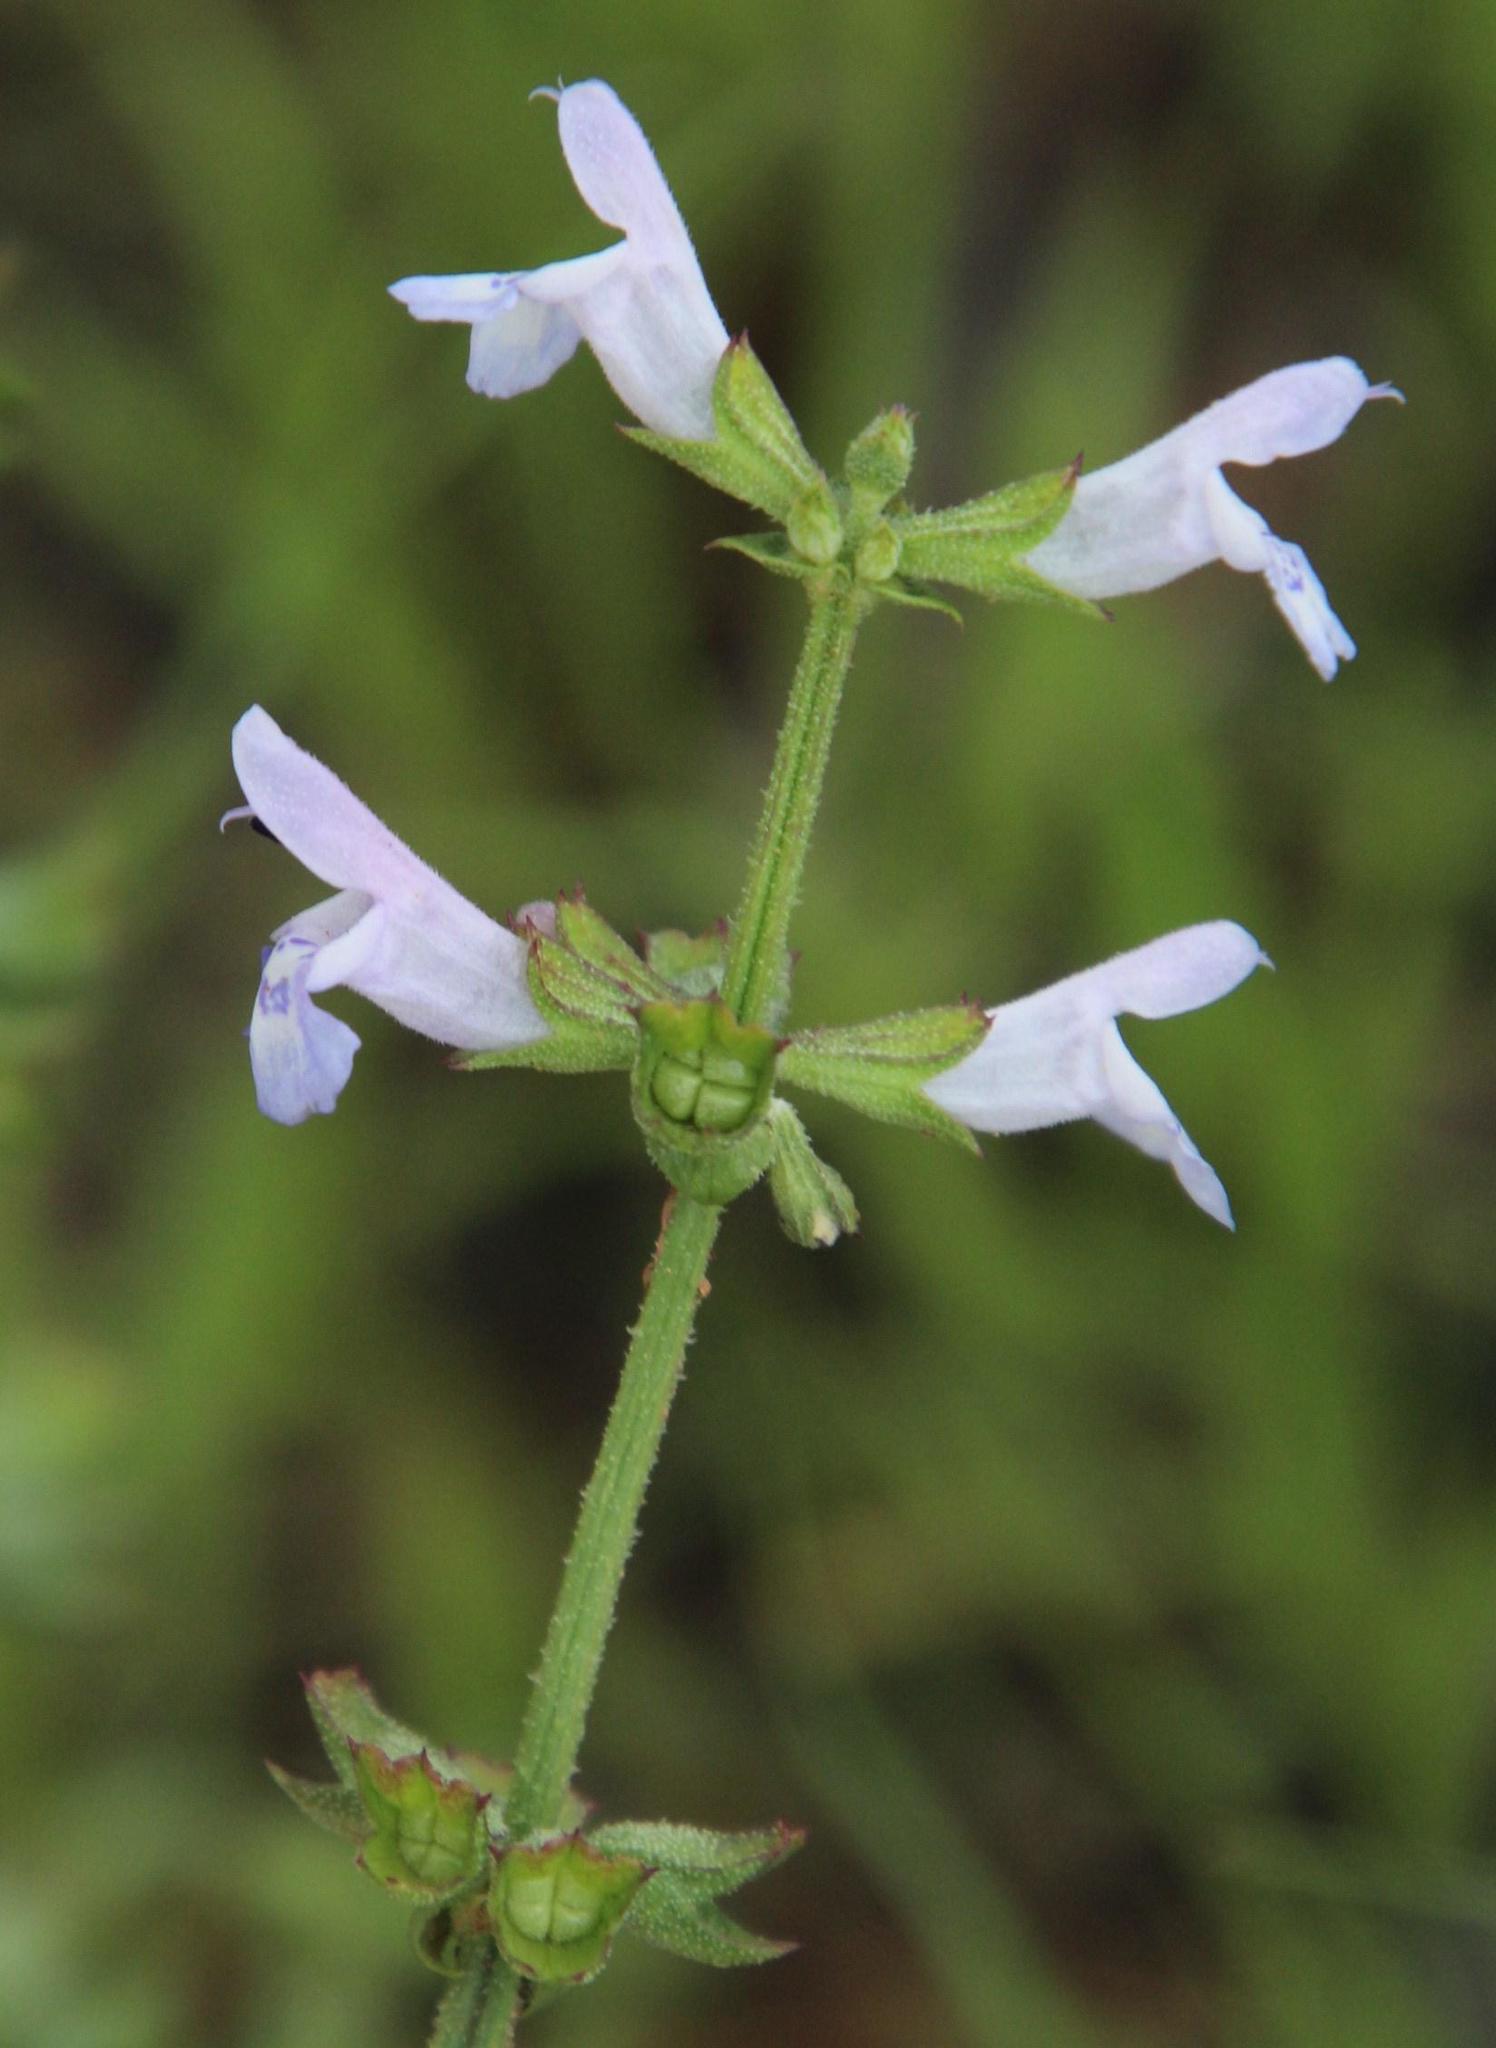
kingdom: Plantae
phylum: Tracheophyta
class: Magnoliopsida
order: Lamiales
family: Lamiaceae
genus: Salvia
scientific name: Salvia runcinata
